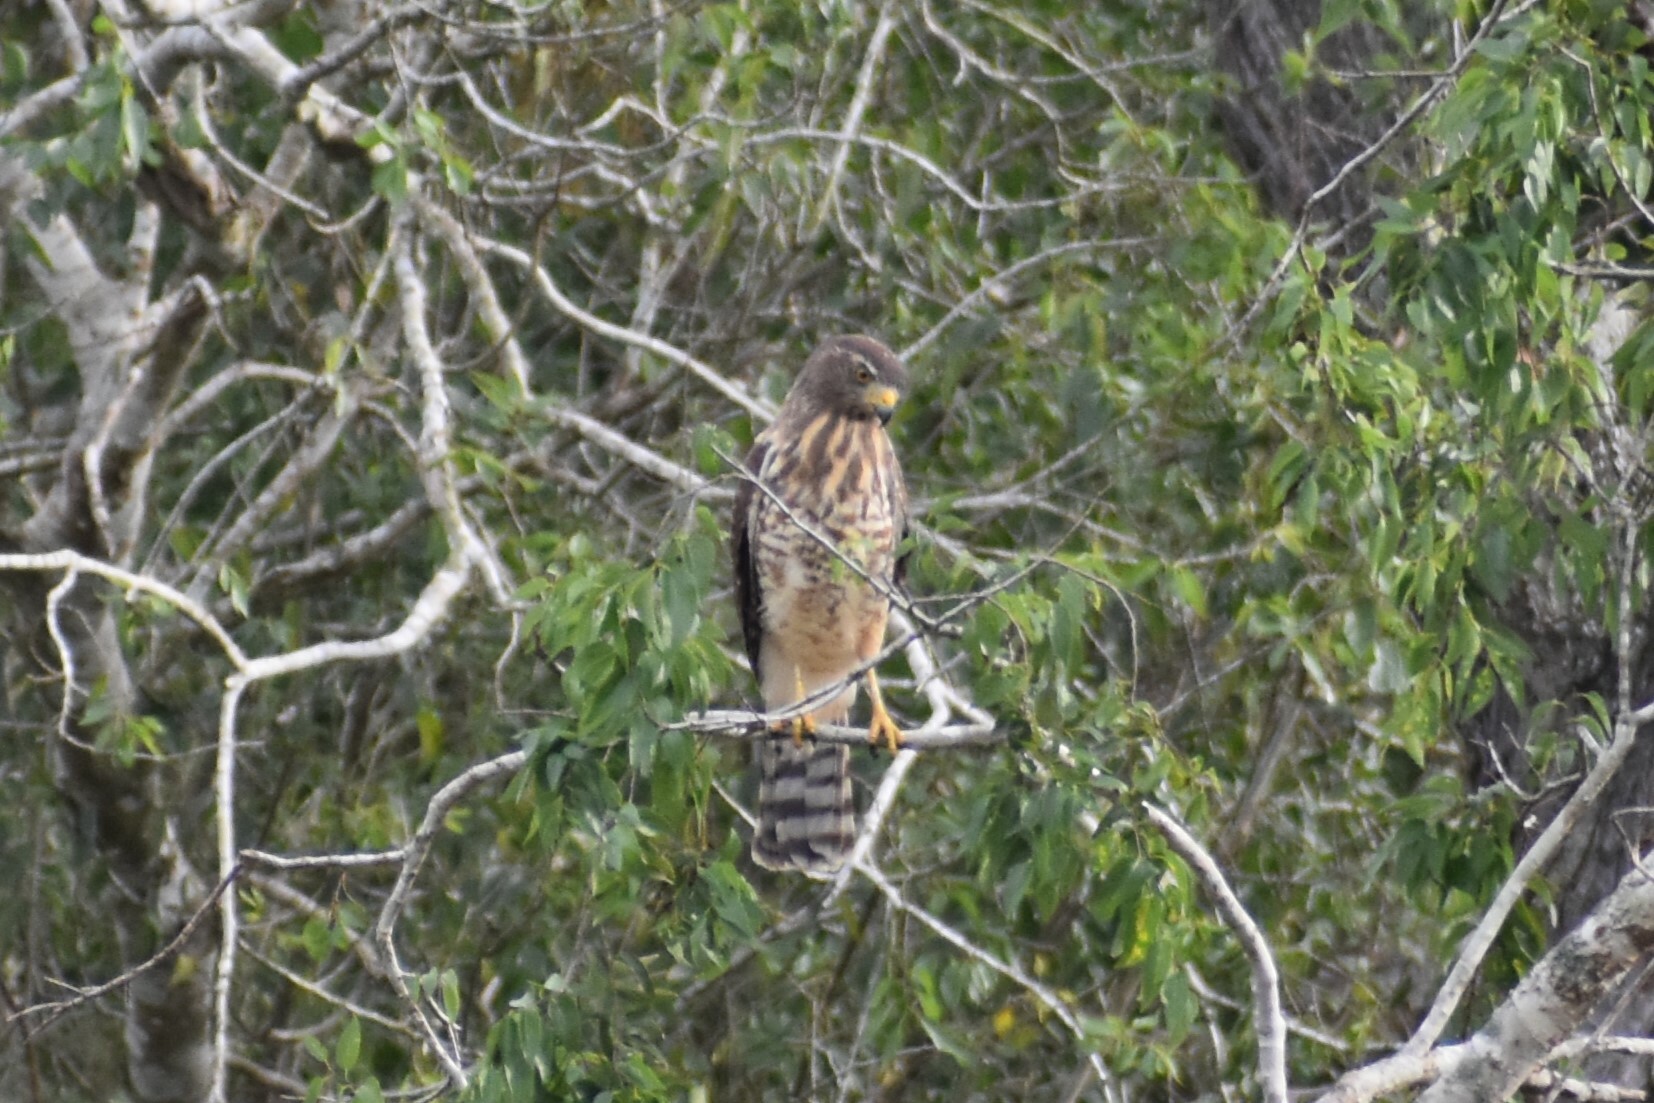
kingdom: Animalia
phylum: Chordata
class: Aves
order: Accipitriformes
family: Accipitridae
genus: Rupornis
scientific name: Rupornis magnirostris
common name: Roadside hawk
